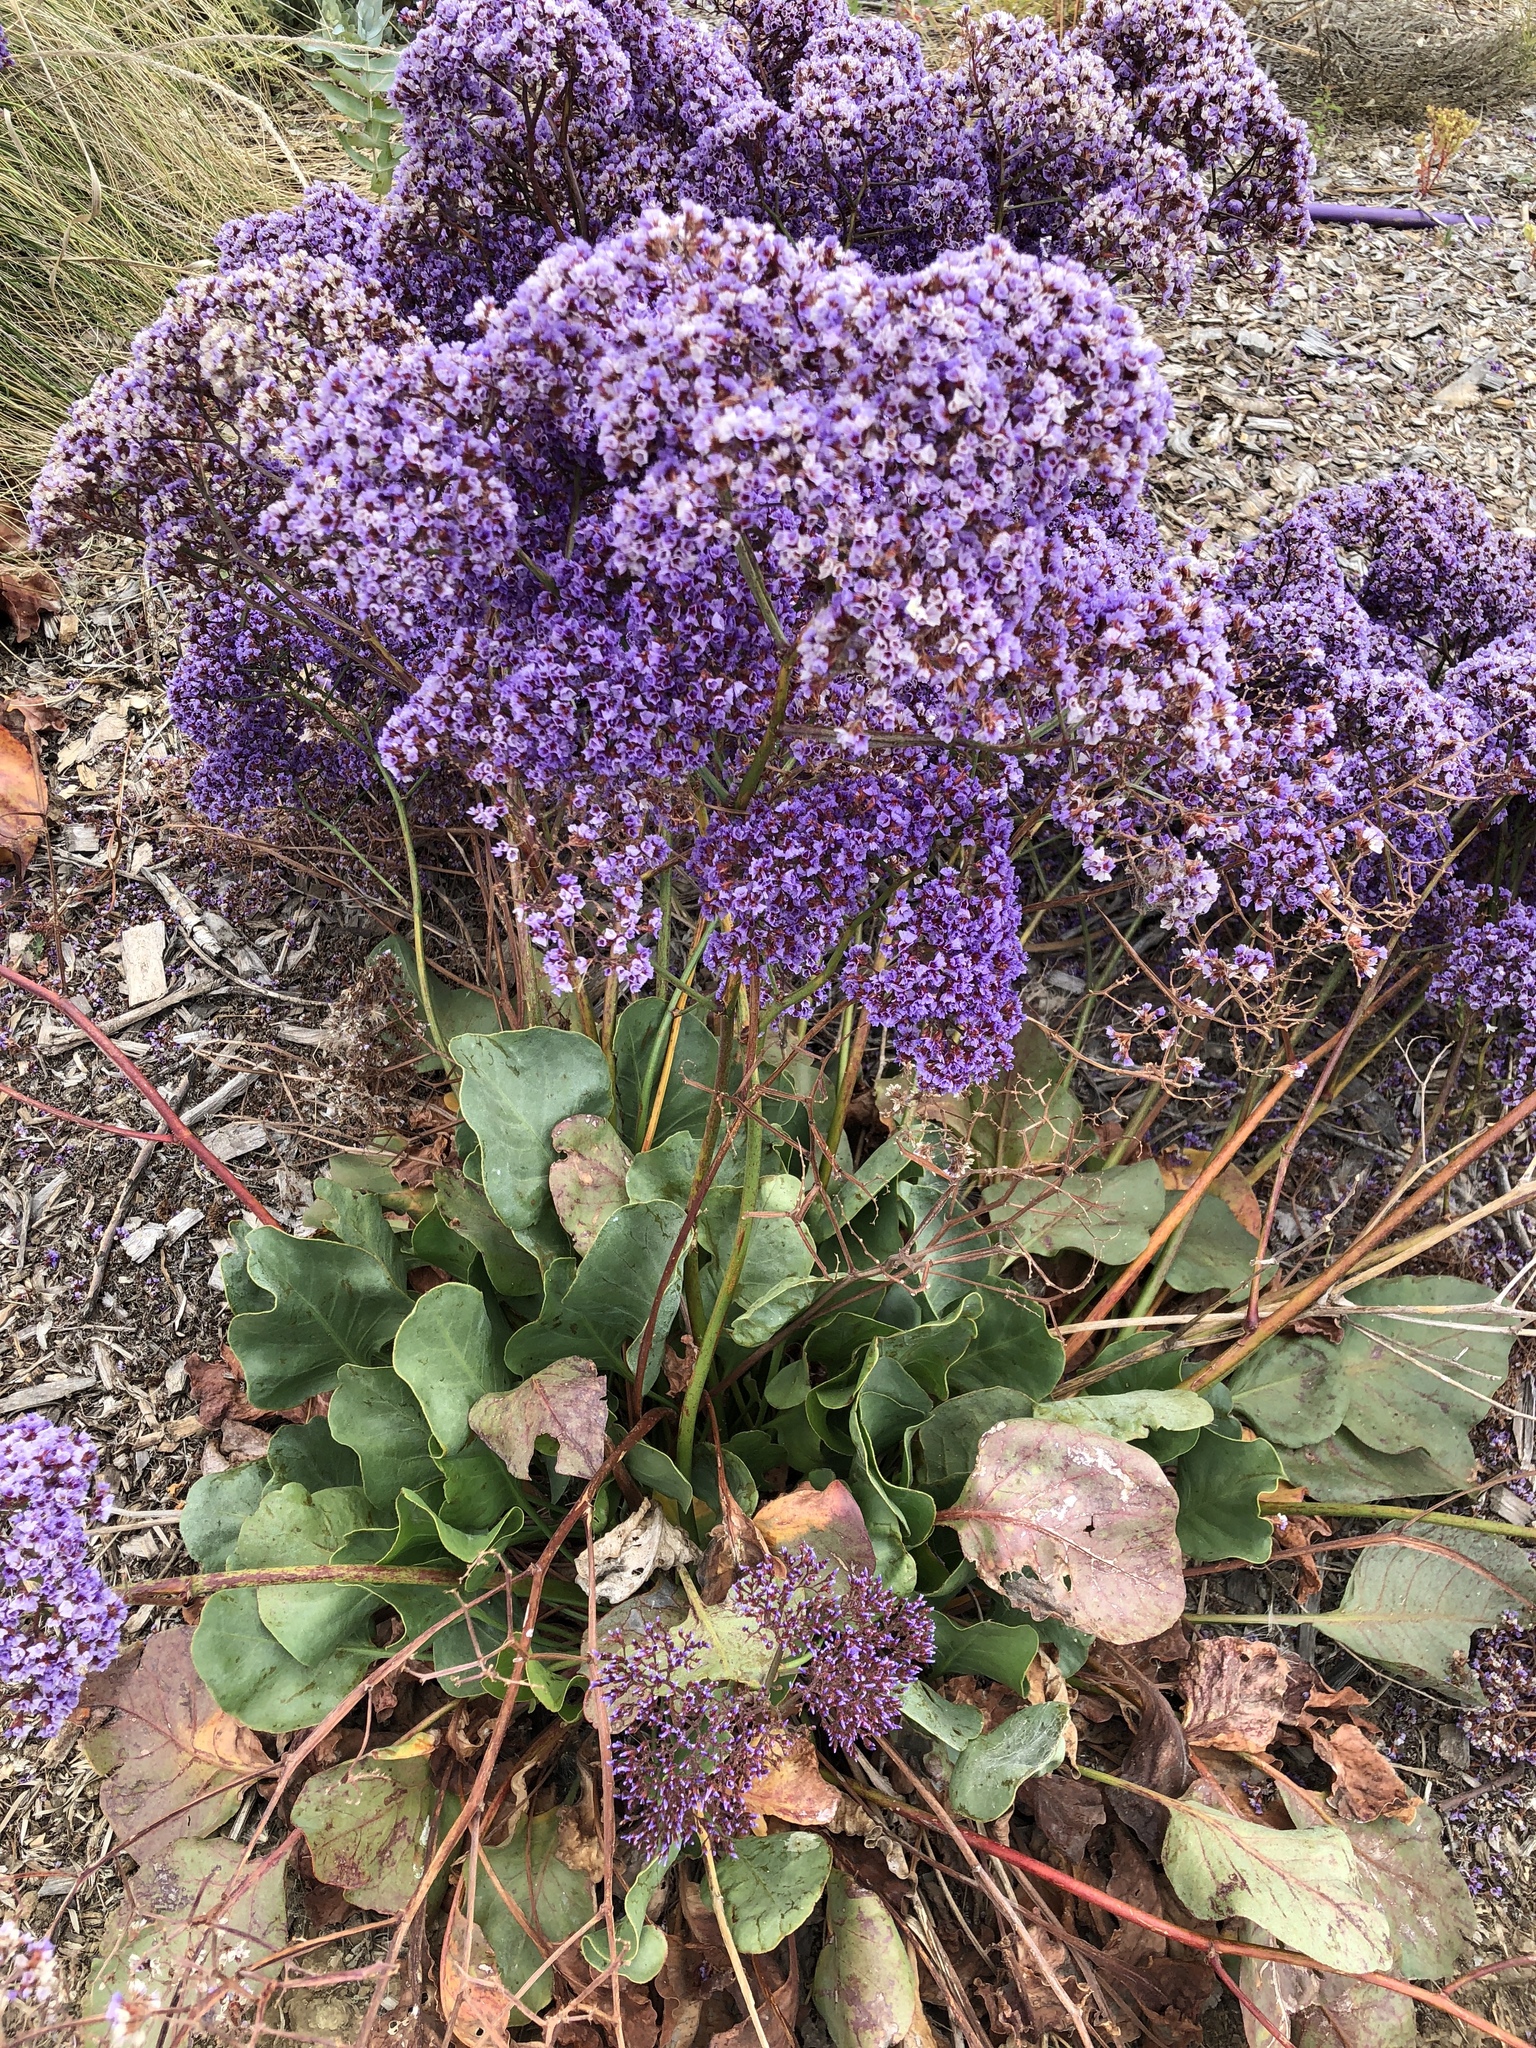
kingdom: Plantae
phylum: Tracheophyta
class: Magnoliopsida
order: Caryophyllales
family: Plumbaginaceae
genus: Limonium
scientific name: Limonium perezii
